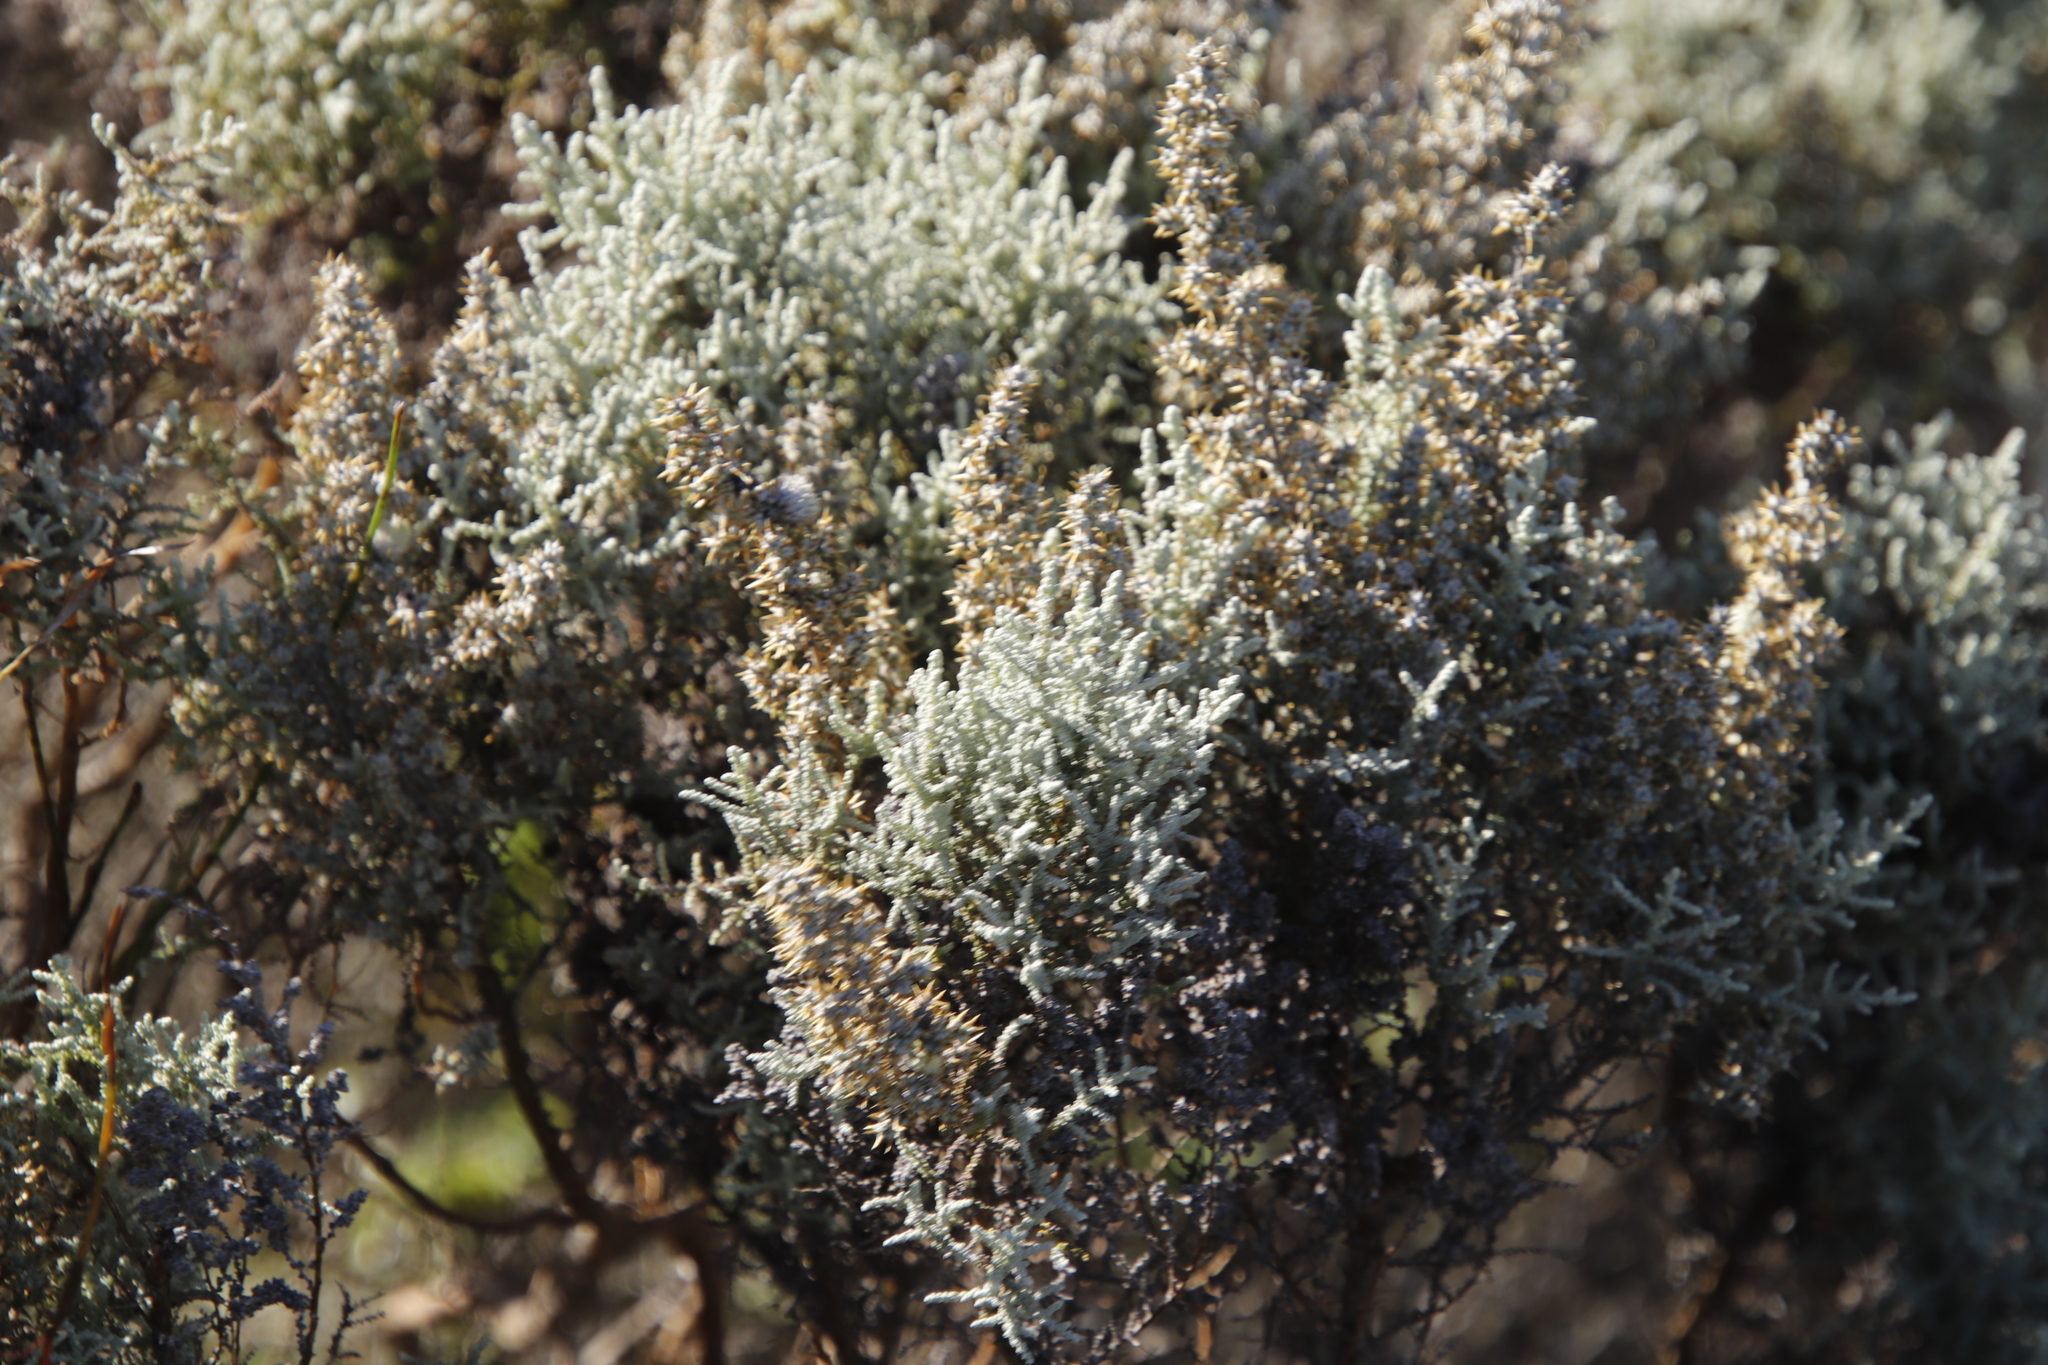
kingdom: Plantae
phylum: Tracheophyta
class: Magnoliopsida
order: Asterales
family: Asteraceae
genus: Seriphium
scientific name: Seriphium plumosum
